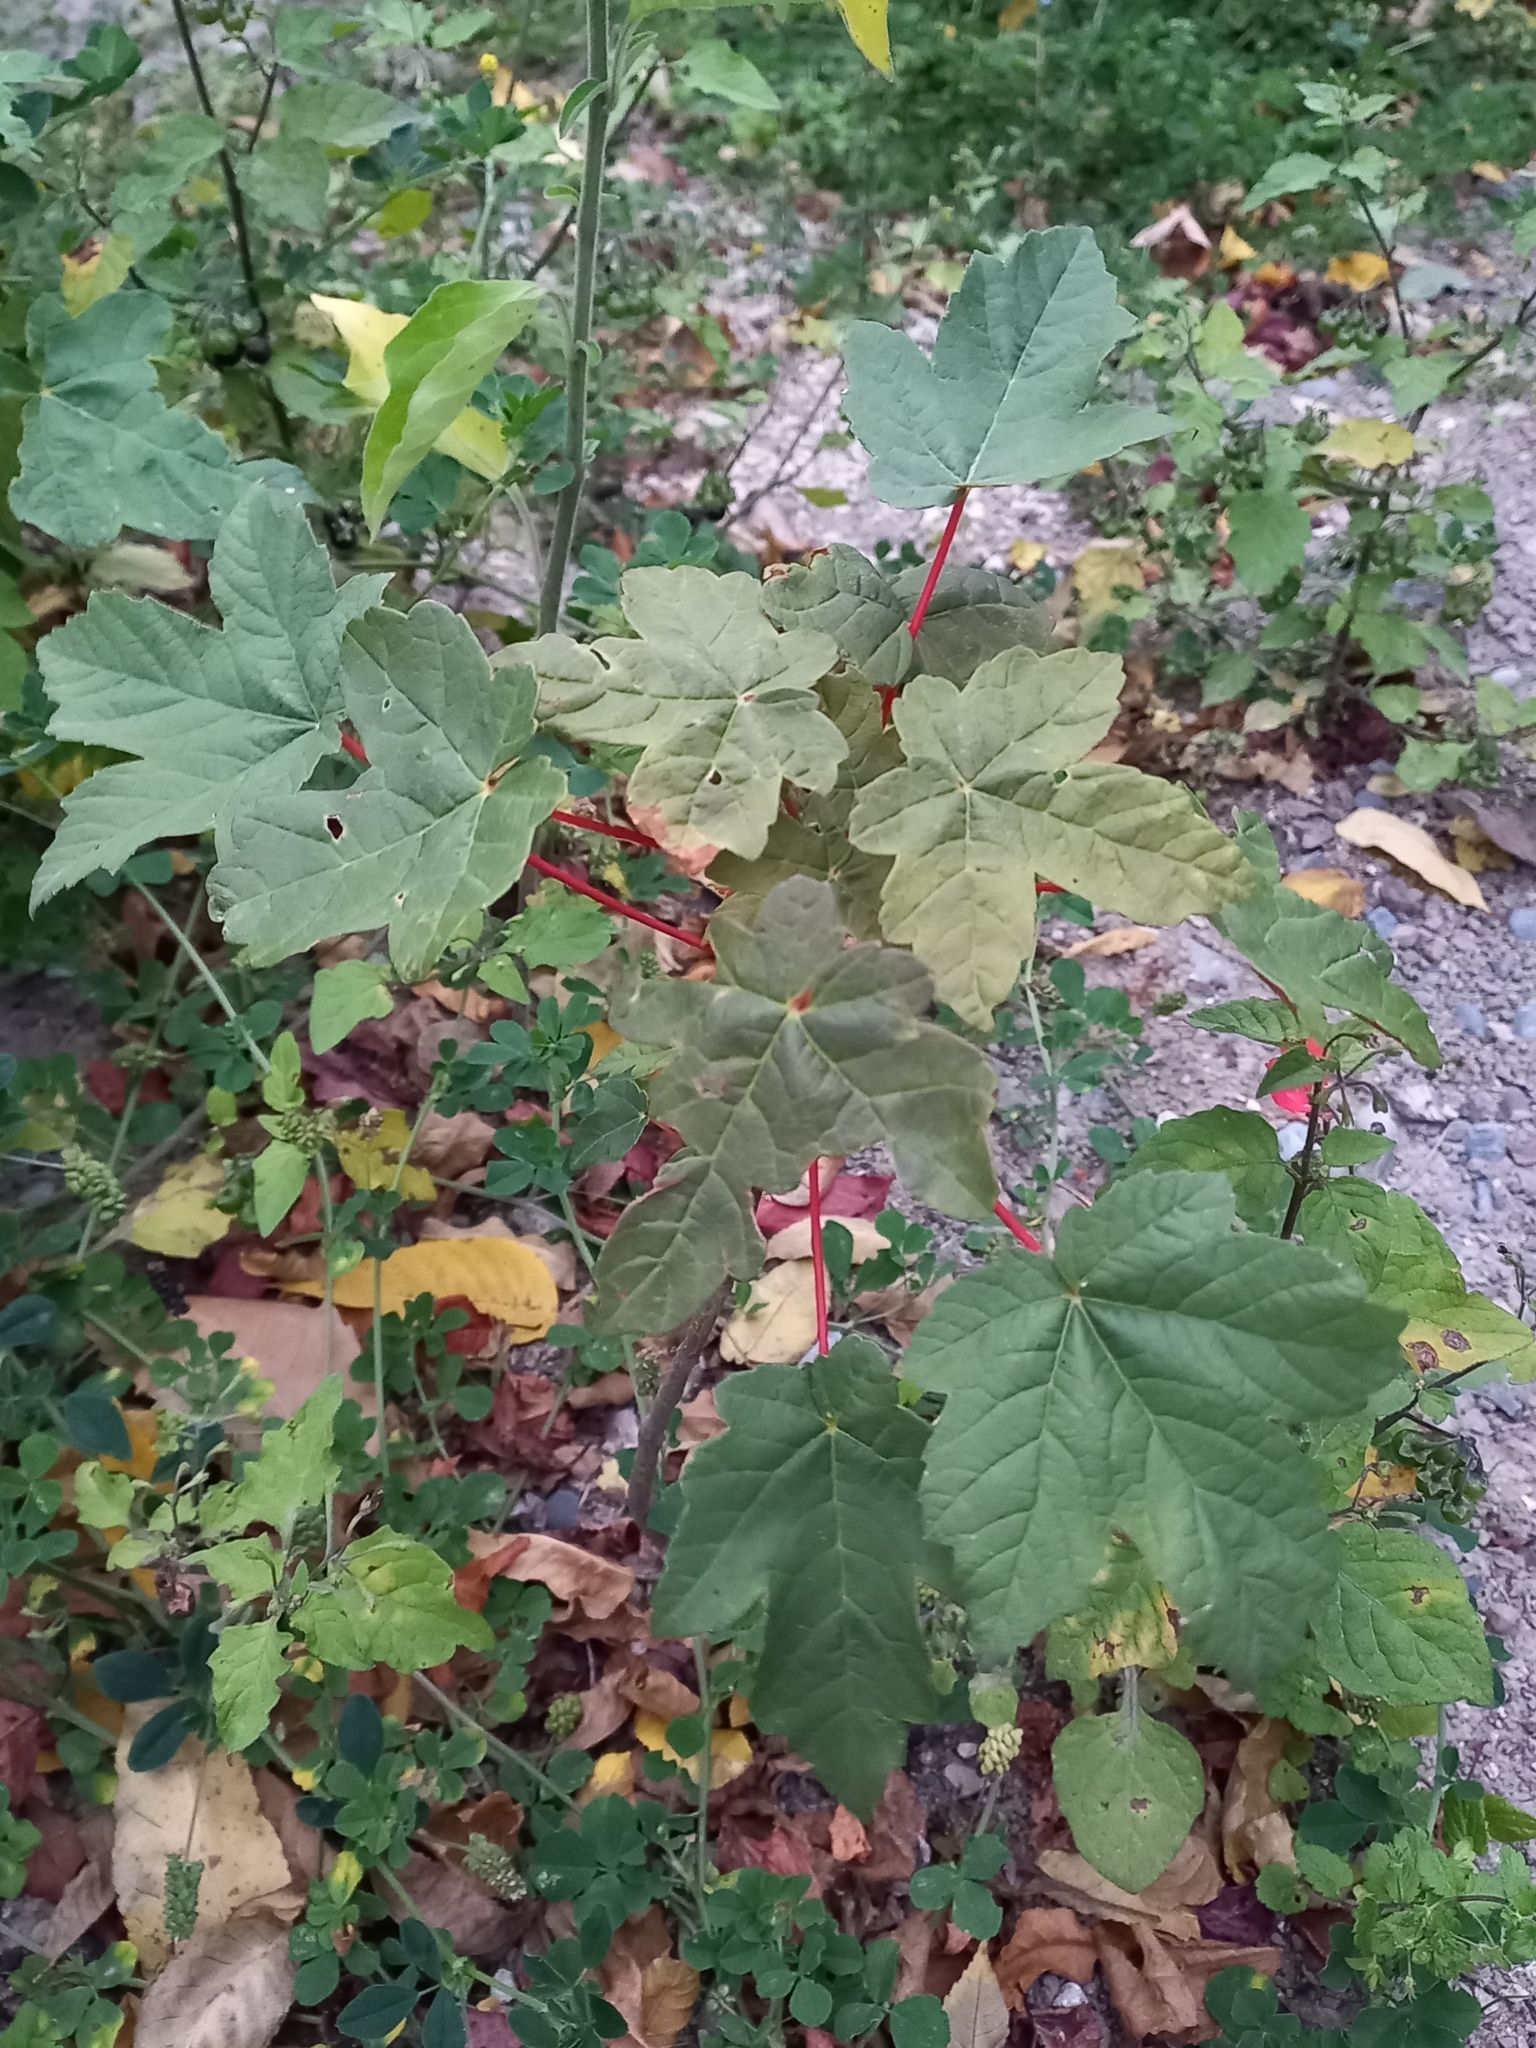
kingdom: Plantae
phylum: Tracheophyta
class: Magnoliopsida
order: Sapindales
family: Sapindaceae
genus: Acer
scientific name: Acer pseudoplatanus
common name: Sycamore
